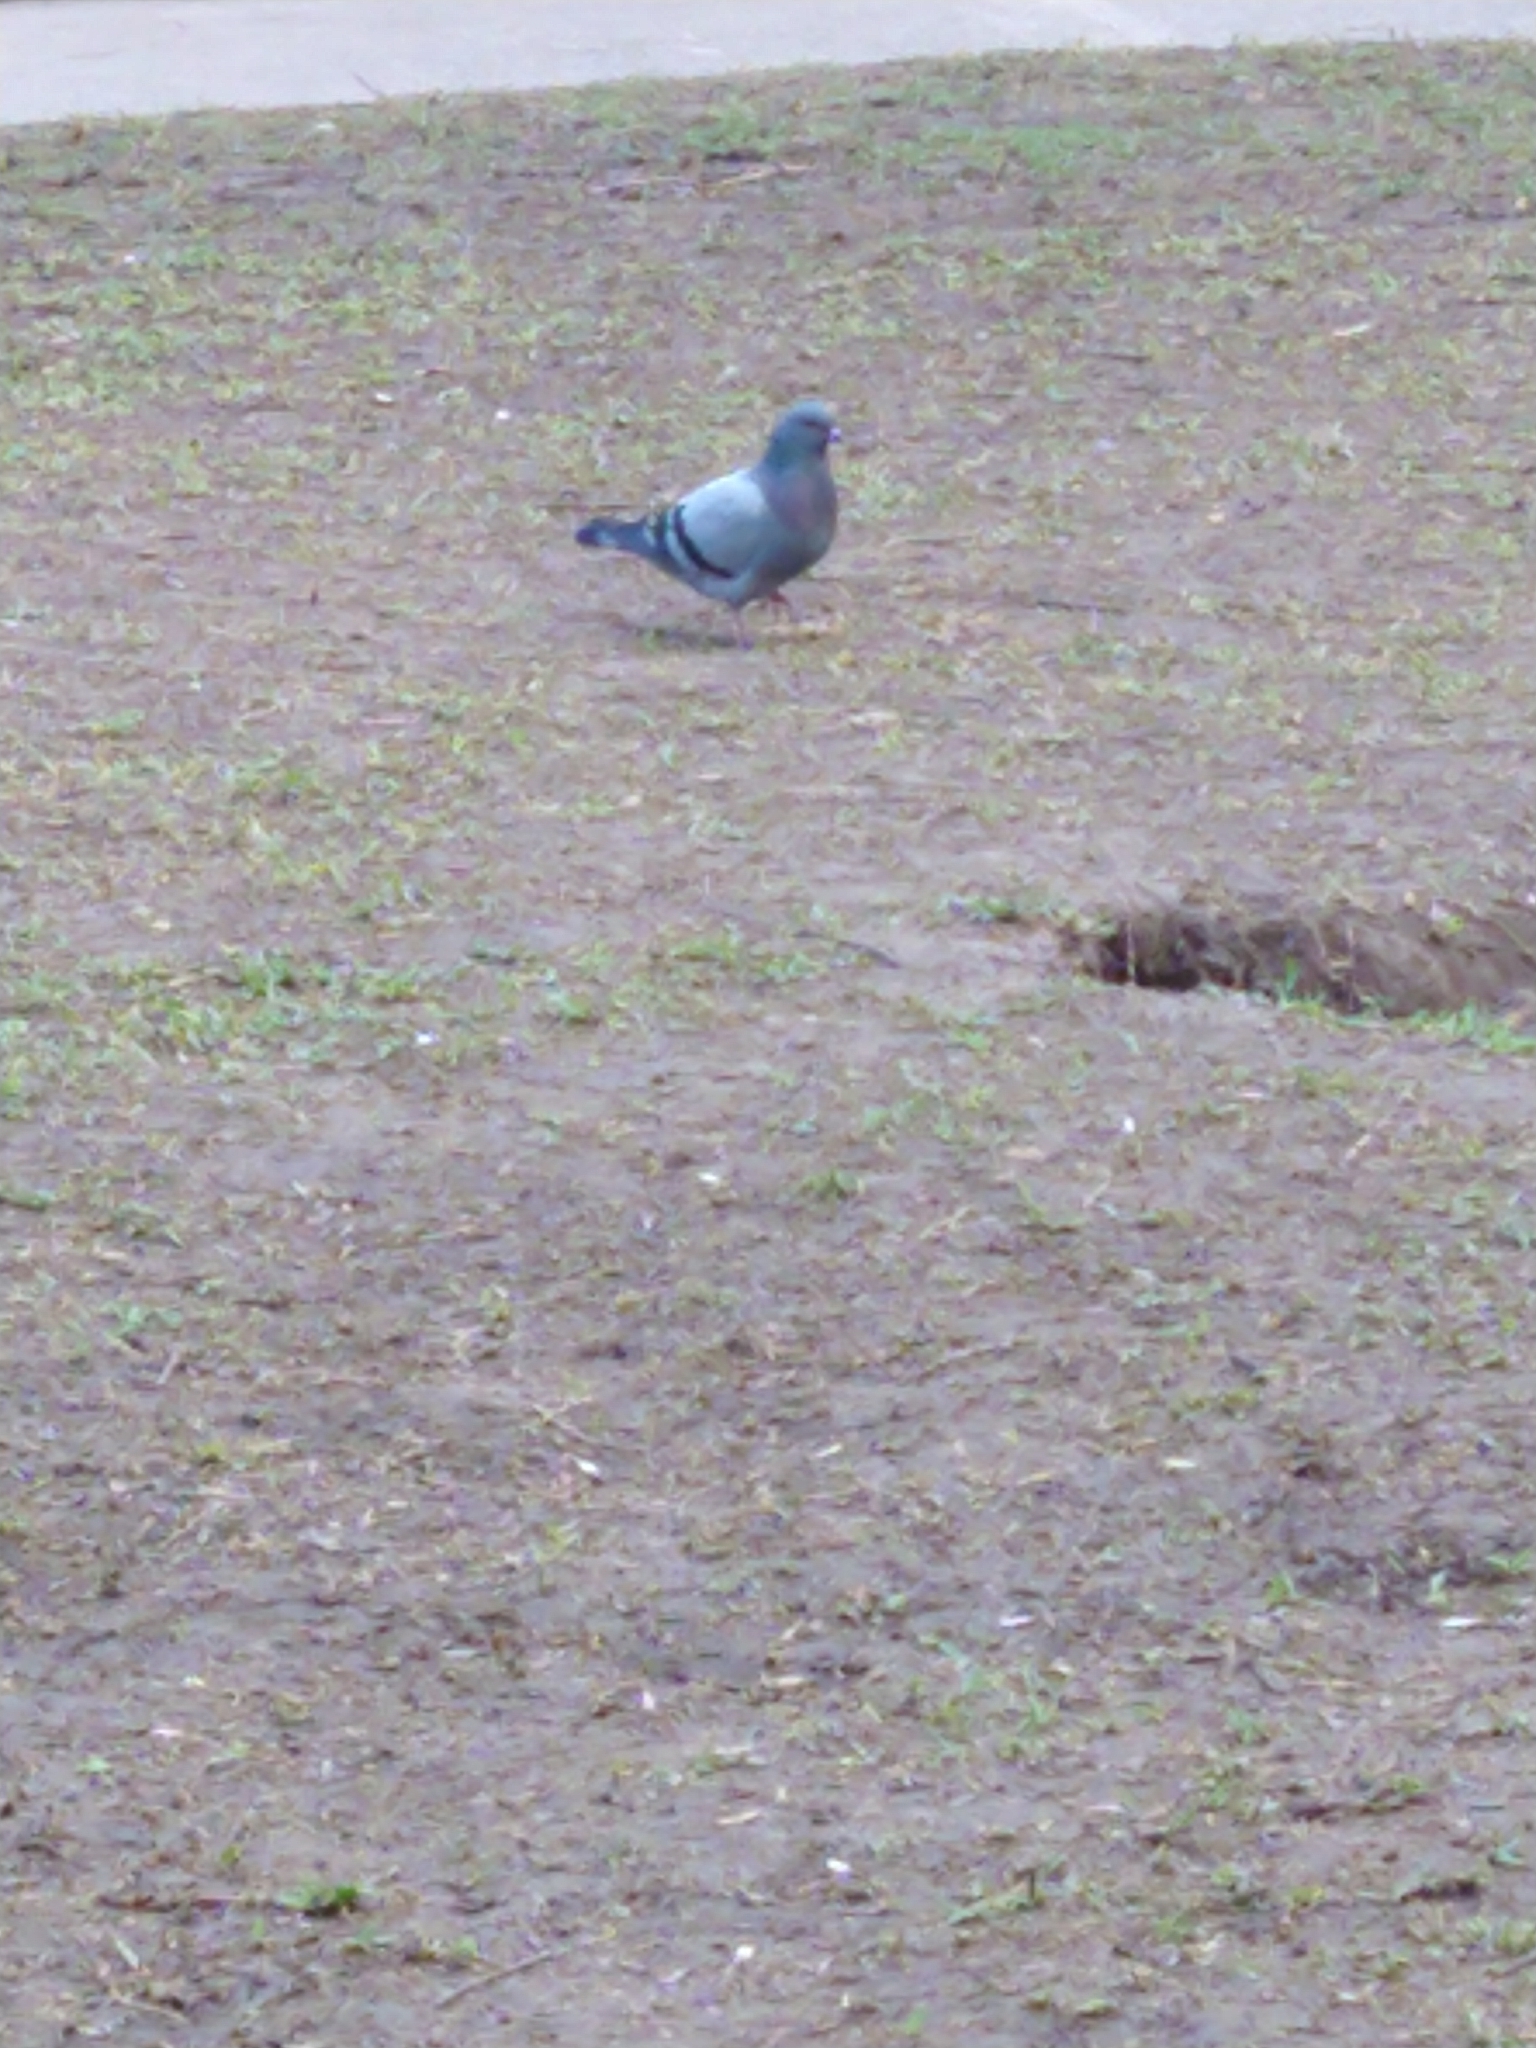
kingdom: Animalia
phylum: Chordata
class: Aves
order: Columbiformes
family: Columbidae
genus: Columba
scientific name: Columba livia
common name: Rock pigeon
